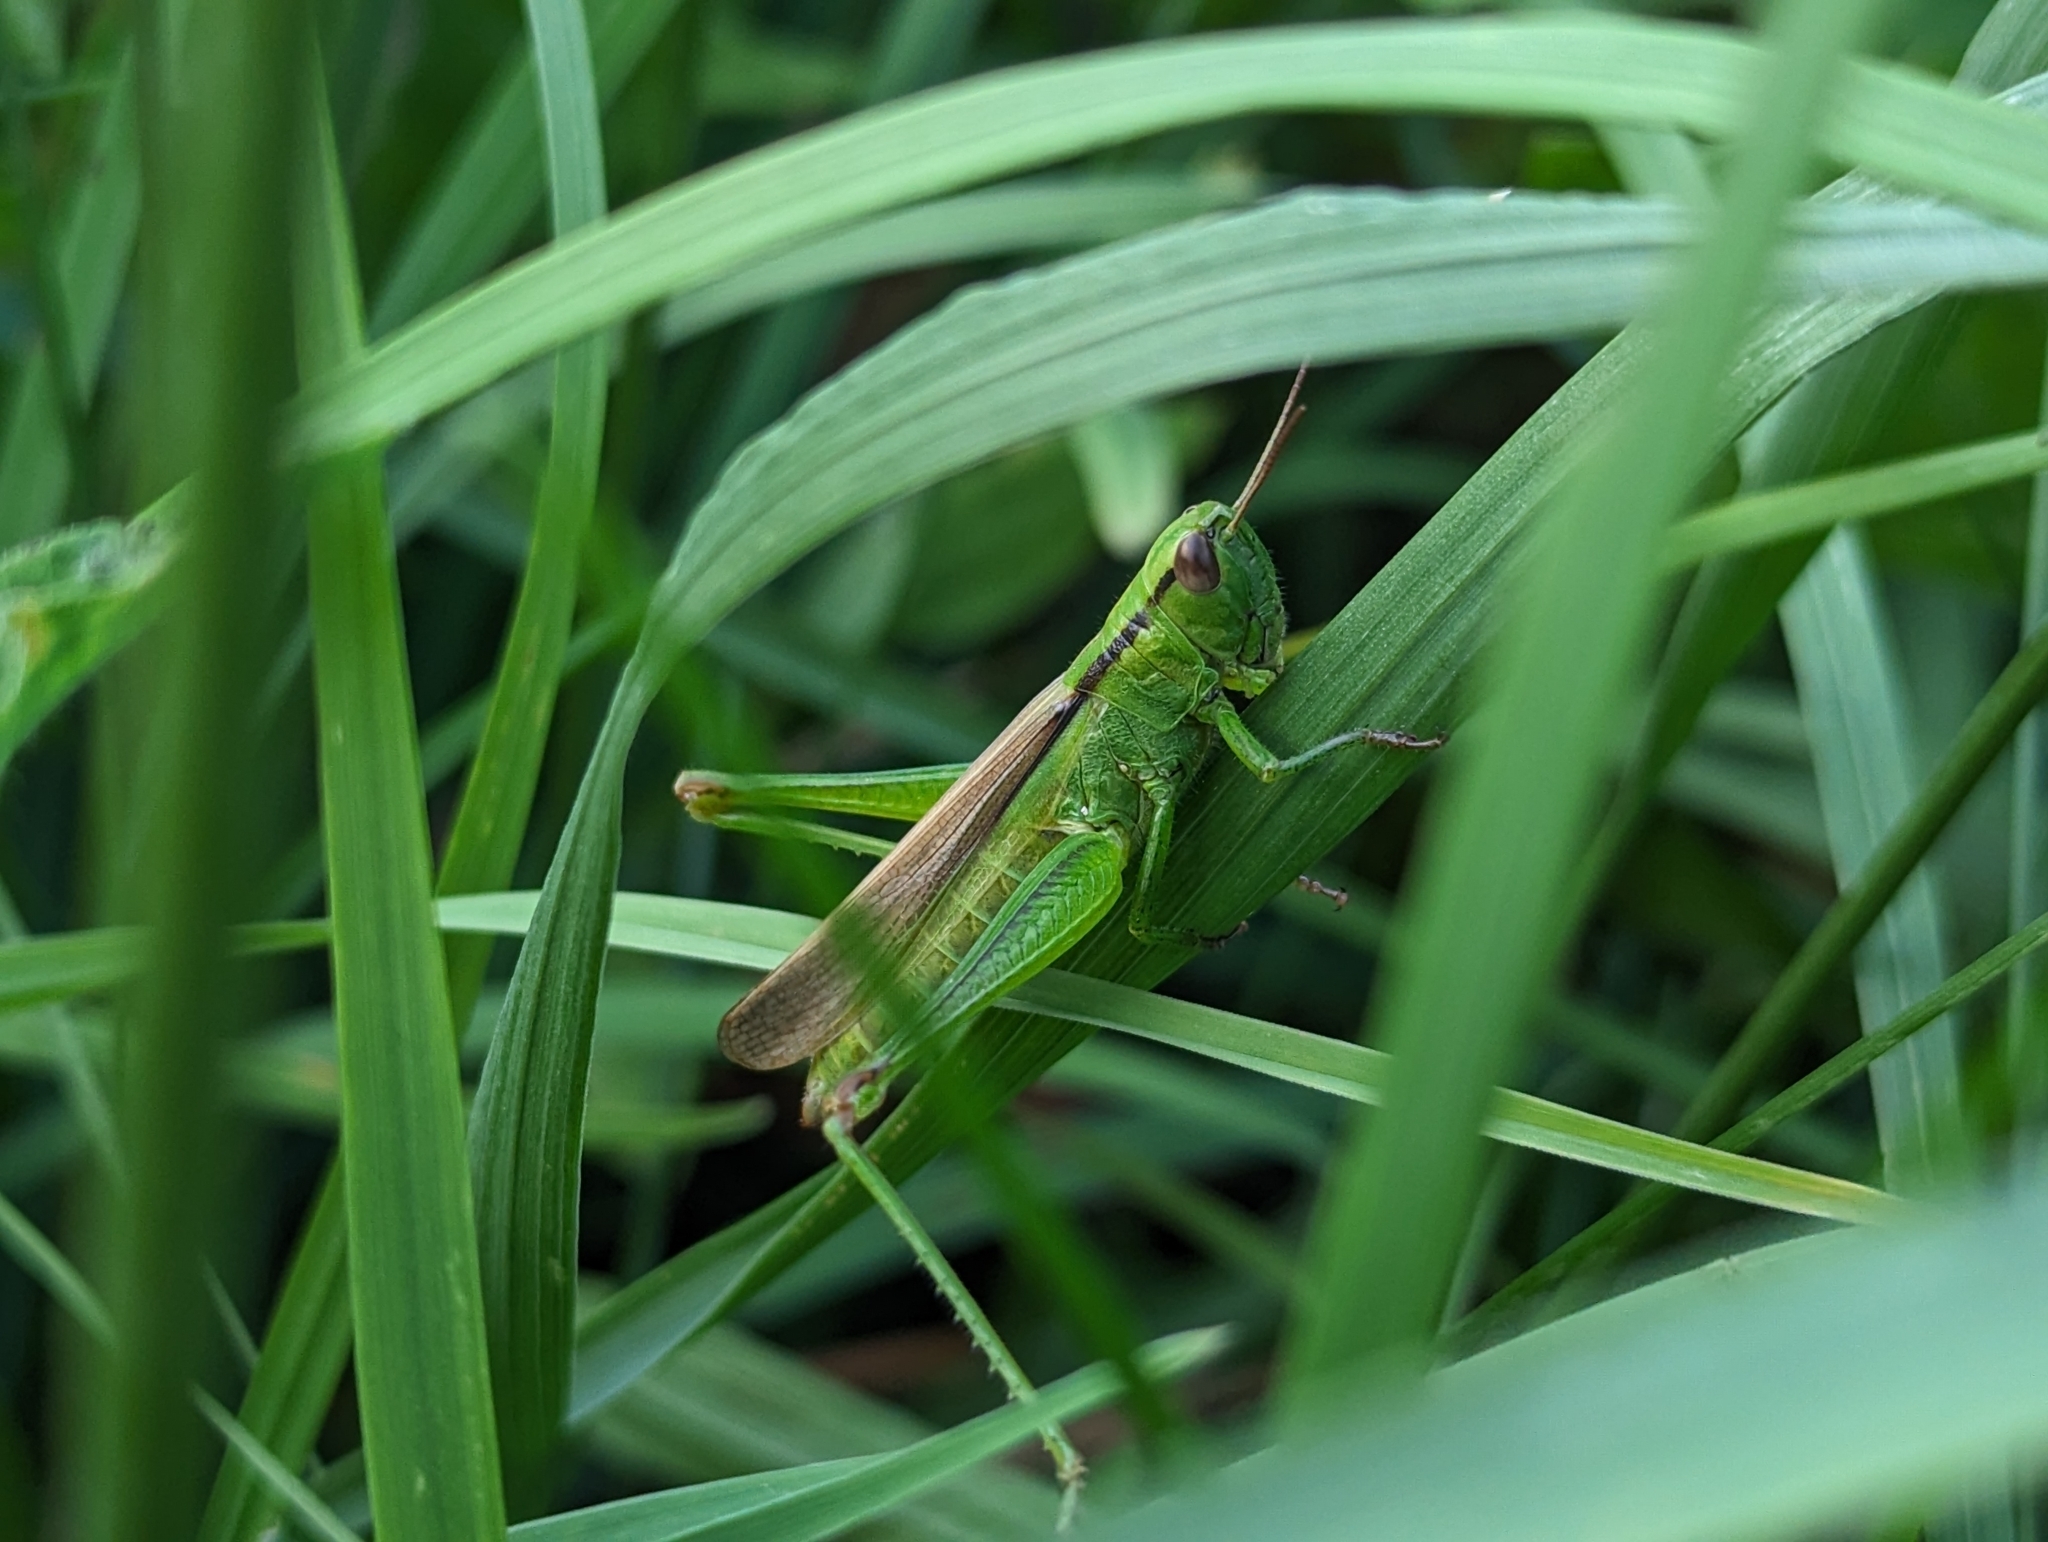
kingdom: Animalia
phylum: Arthropoda
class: Insecta
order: Orthoptera
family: Acrididae
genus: Mecostethus
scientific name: Mecostethus parapleurus
